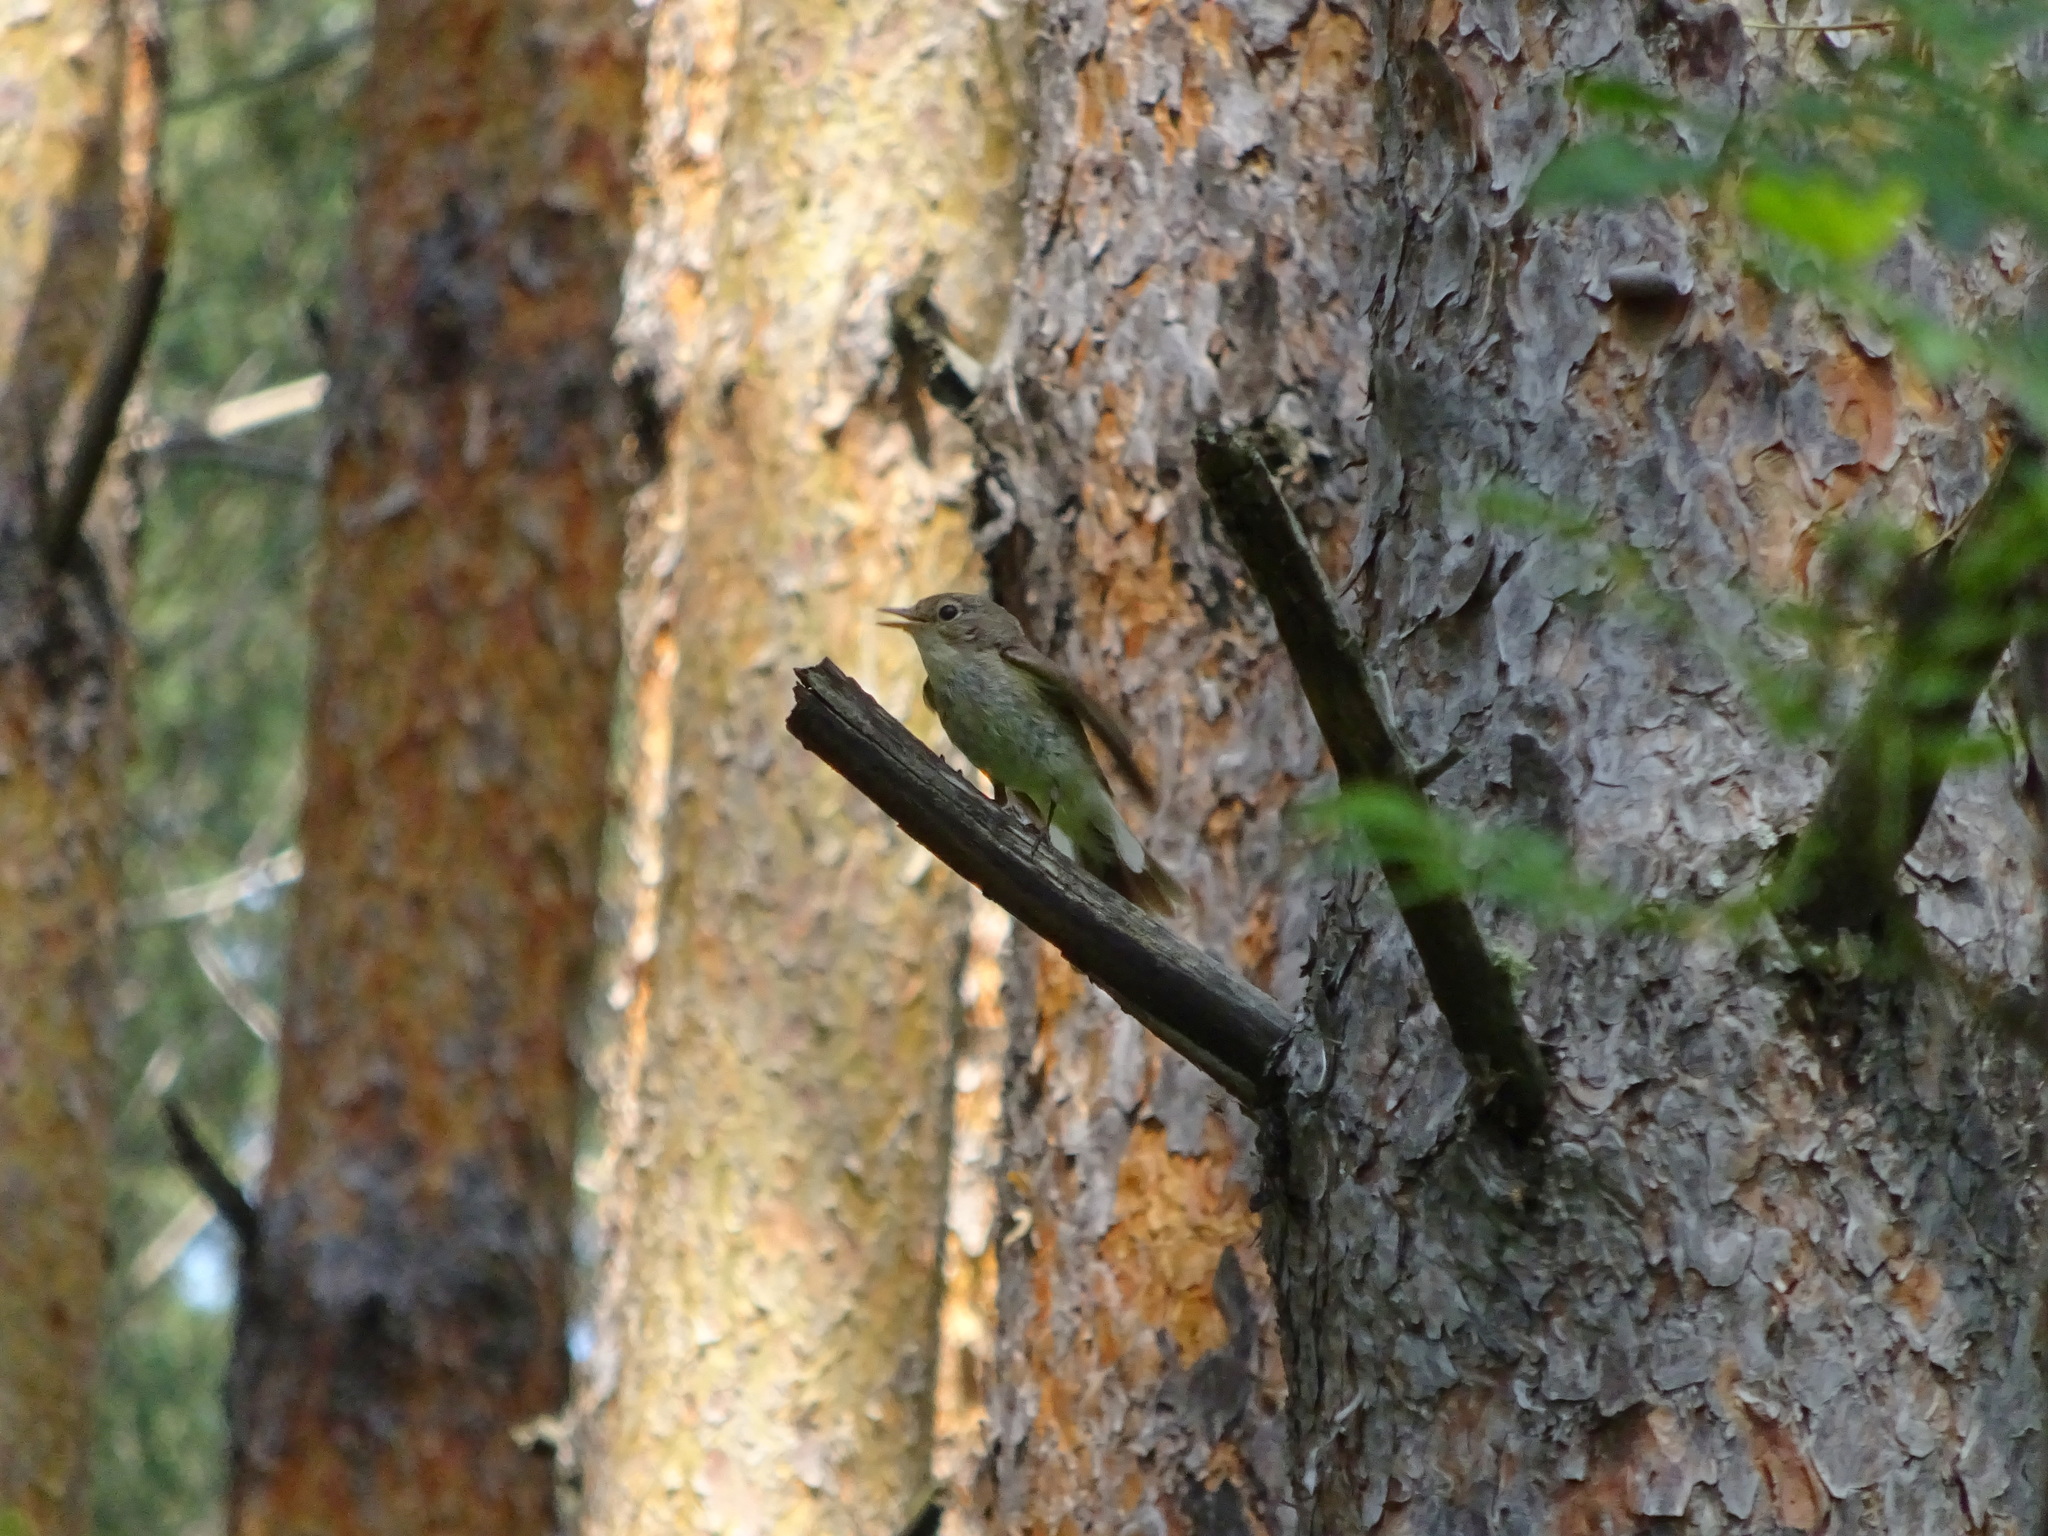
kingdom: Animalia
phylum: Chordata
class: Aves
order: Passeriformes
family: Muscicapidae
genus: Ficedula
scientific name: Ficedula parva
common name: Red-breasted flycatcher
